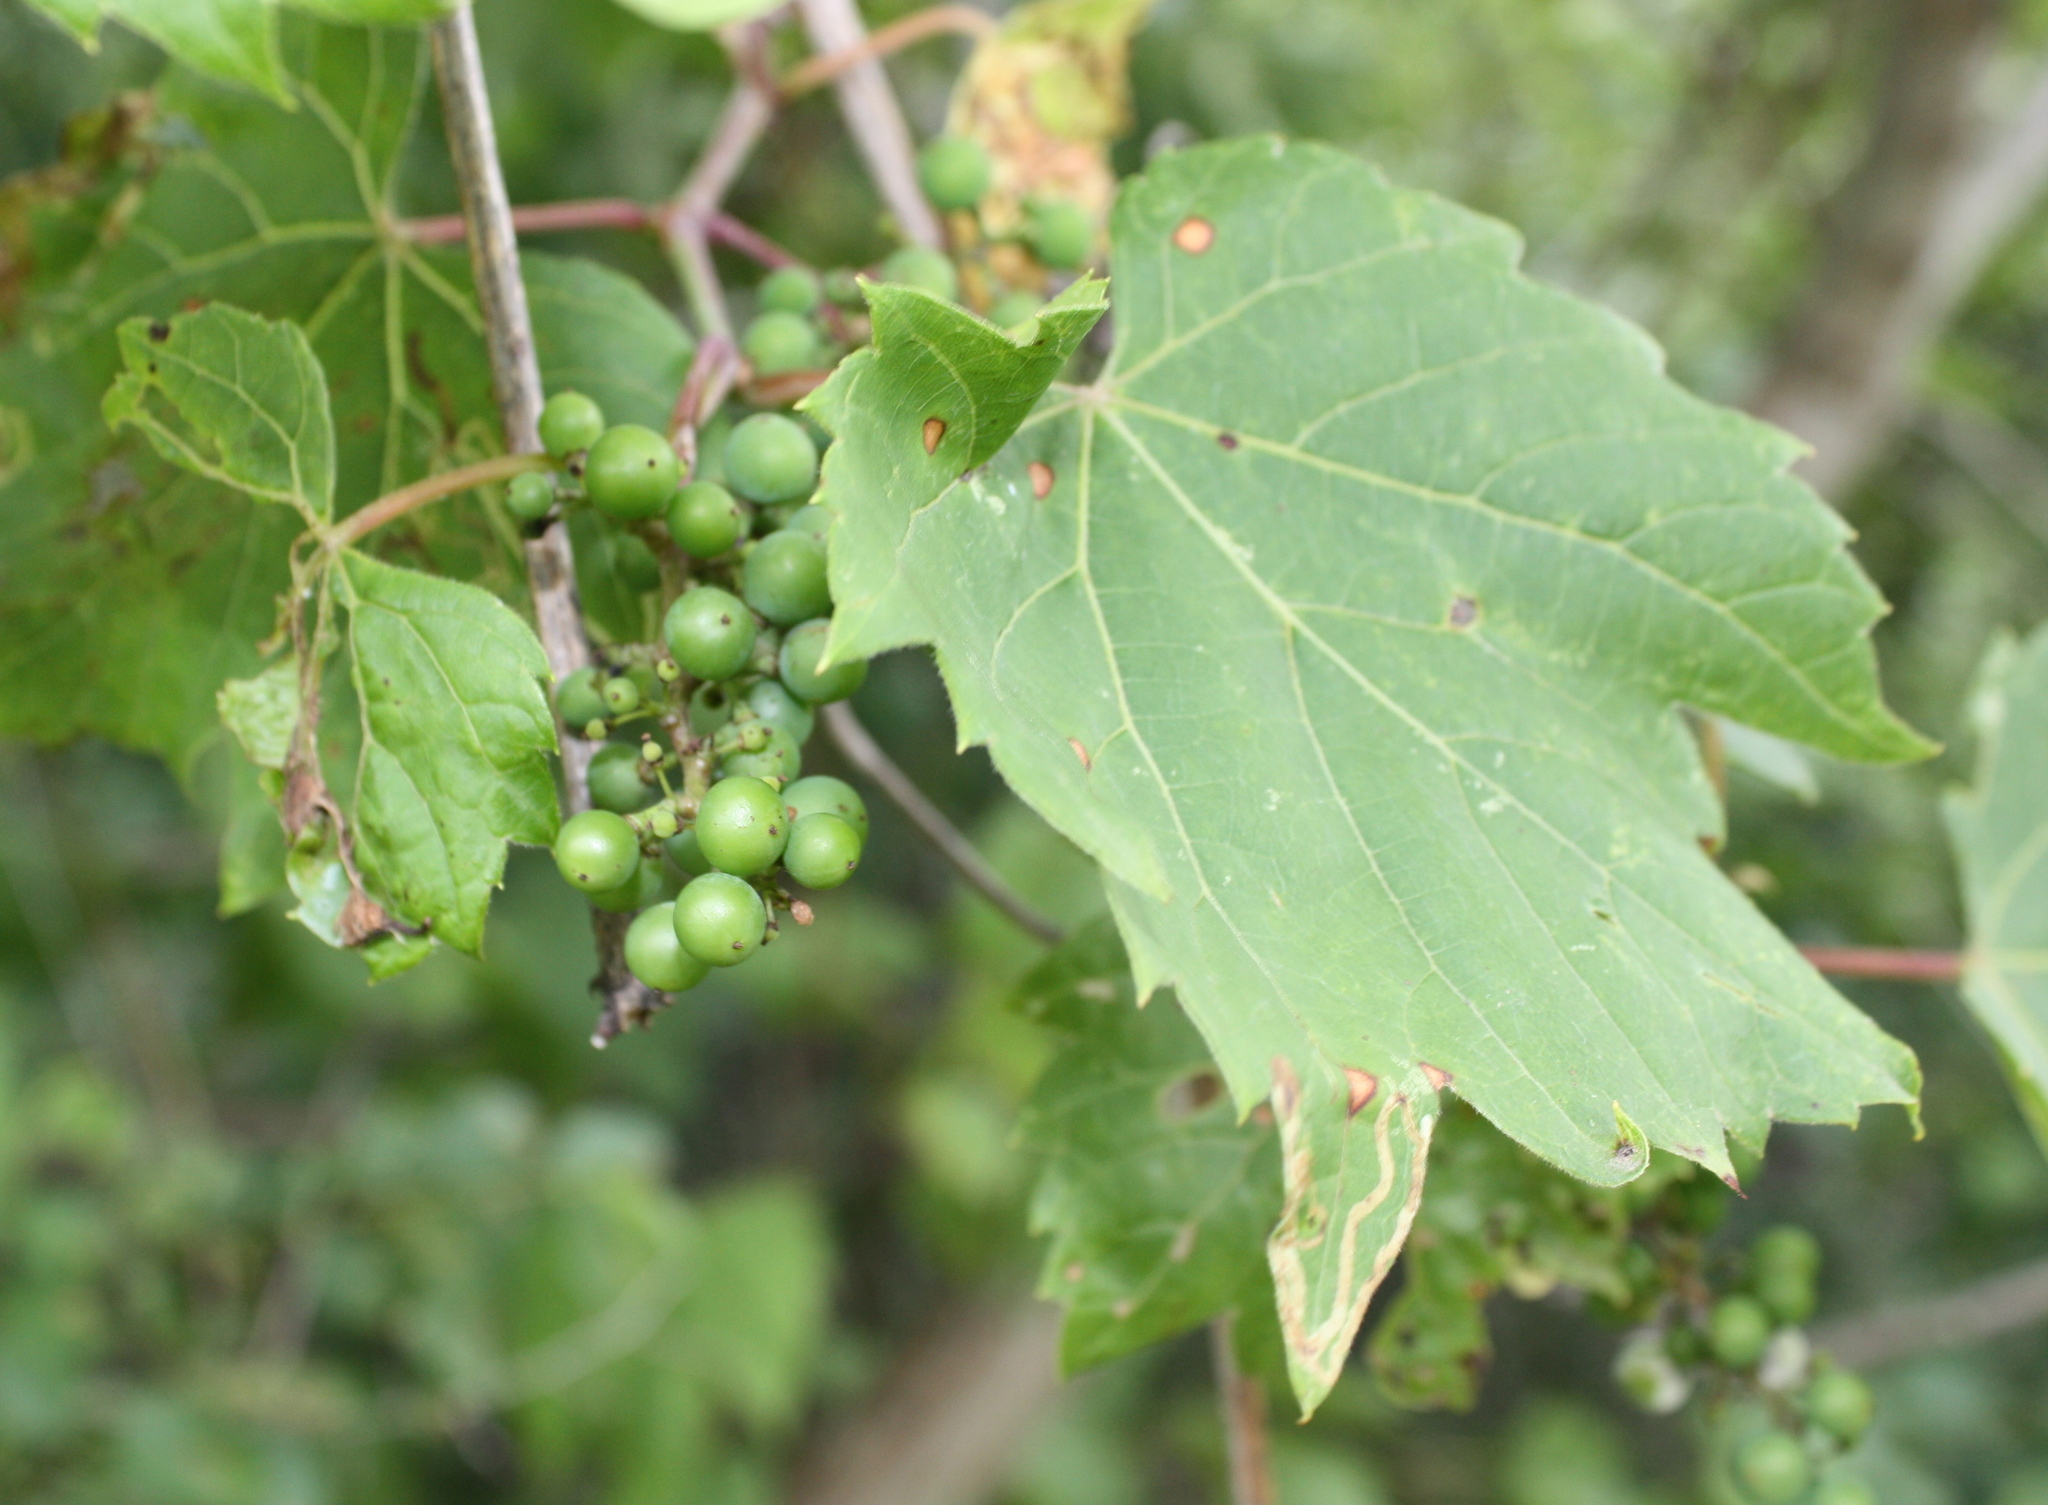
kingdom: Plantae
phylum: Tracheophyta
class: Magnoliopsida
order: Vitales
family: Vitaceae
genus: Vitis
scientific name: Vitis riparia
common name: Frost grape
